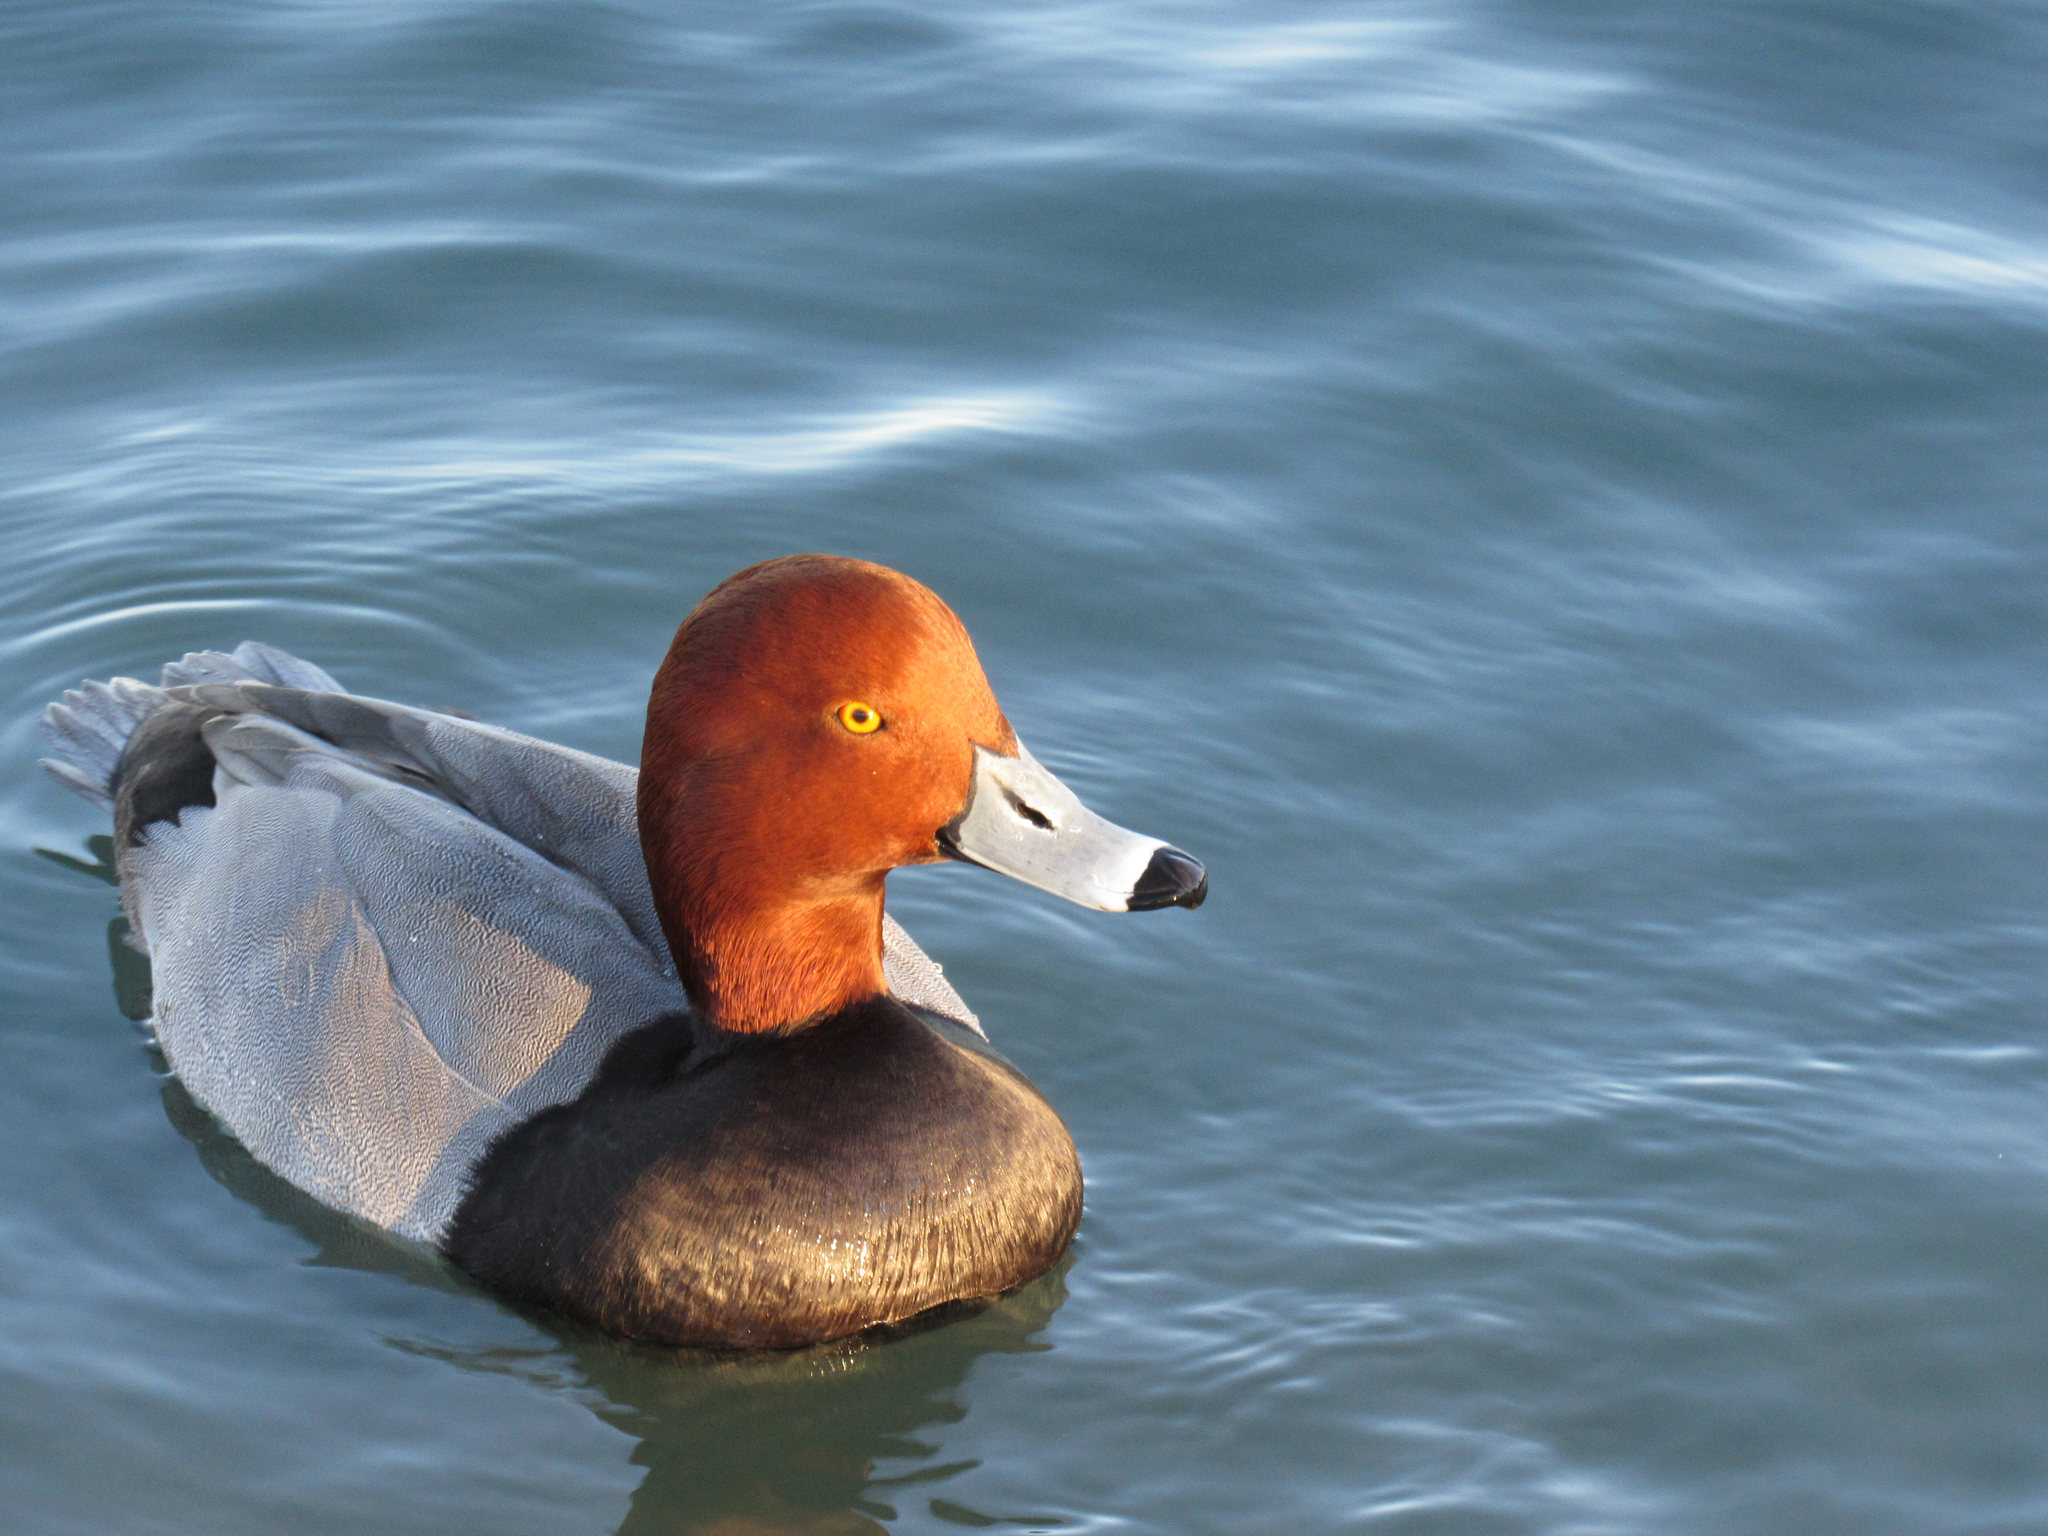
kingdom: Animalia
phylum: Chordata
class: Aves
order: Anseriformes
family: Anatidae
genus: Aythya
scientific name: Aythya americana
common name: Redhead
